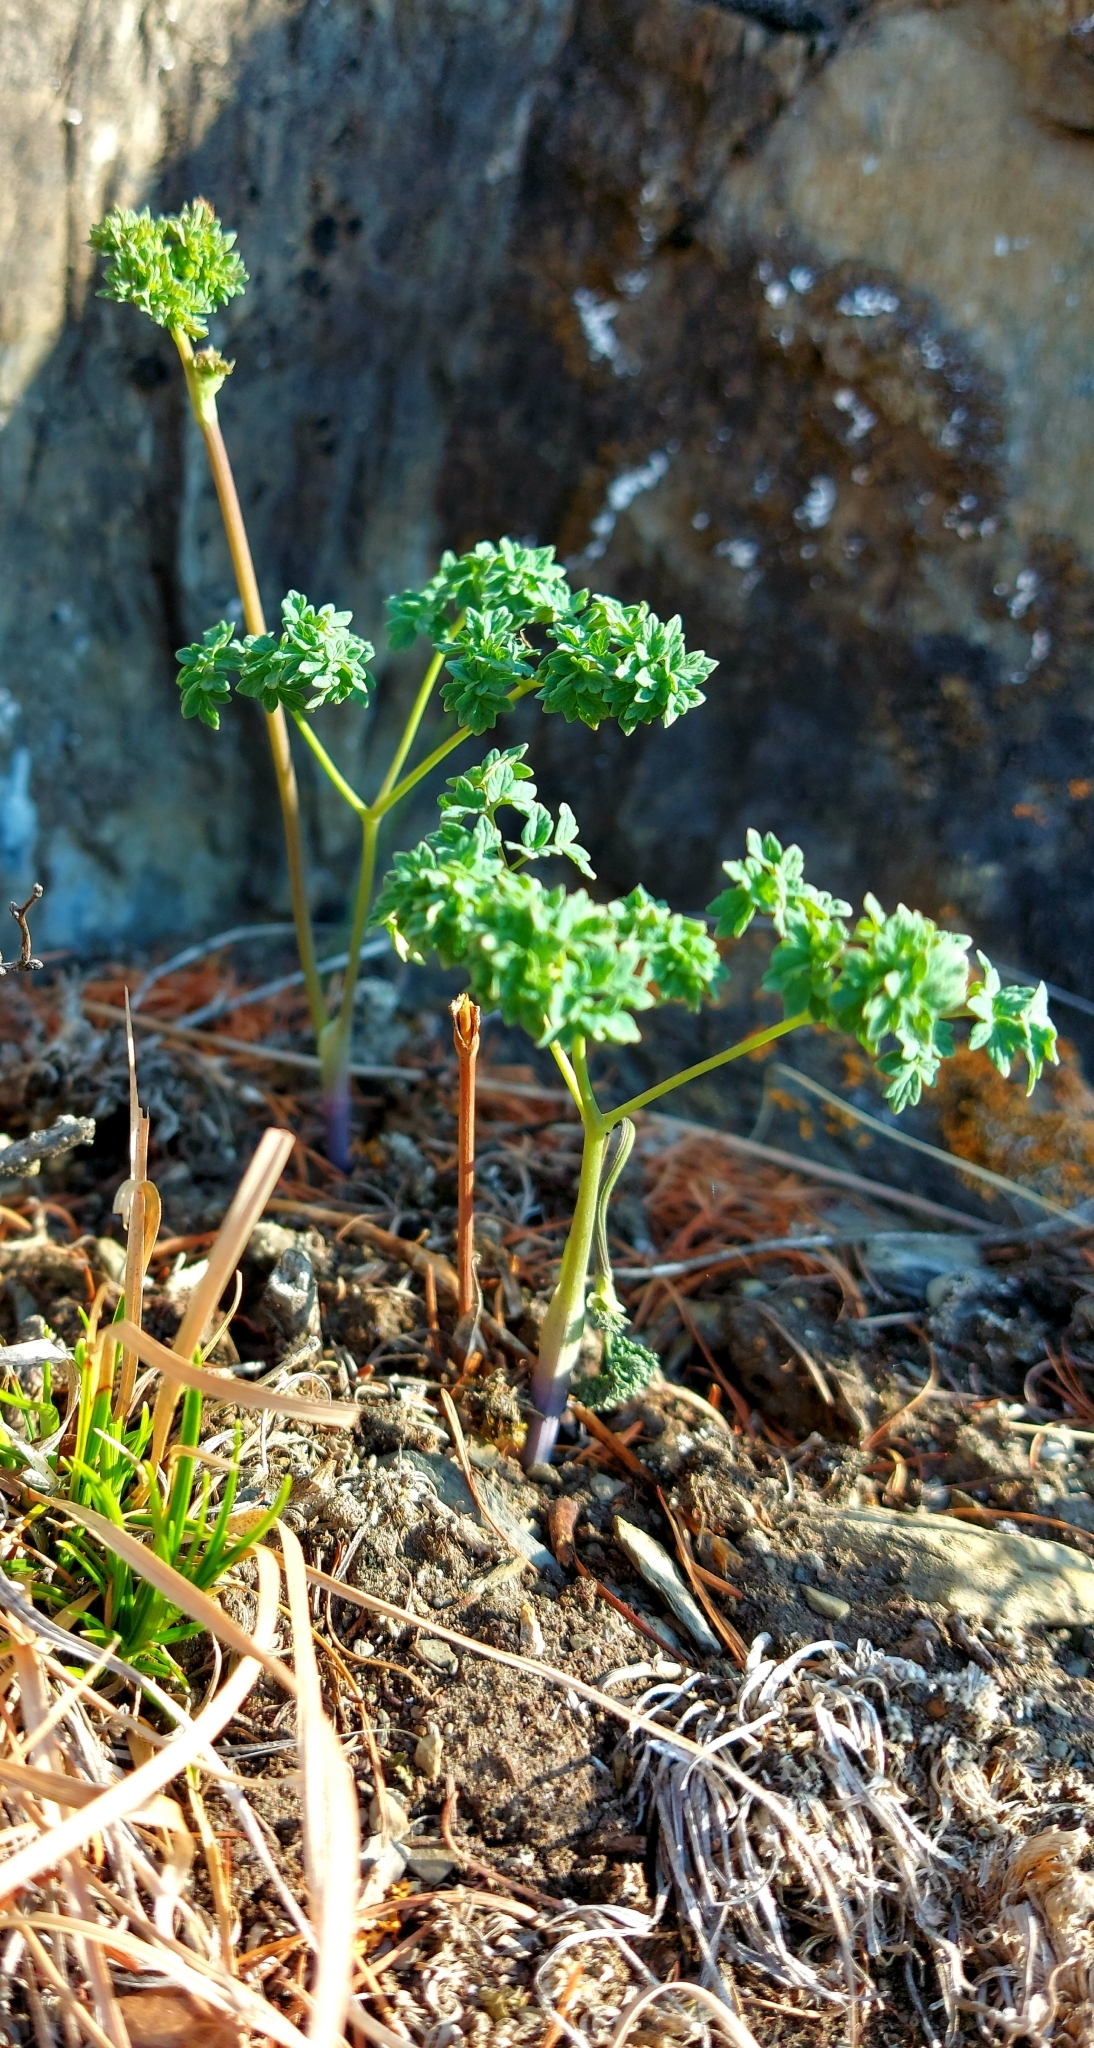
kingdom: Plantae
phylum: Tracheophyta
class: Magnoliopsida
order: Ranunculales
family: Ranunculaceae
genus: Thalictrum
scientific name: Thalictrum foetidum
